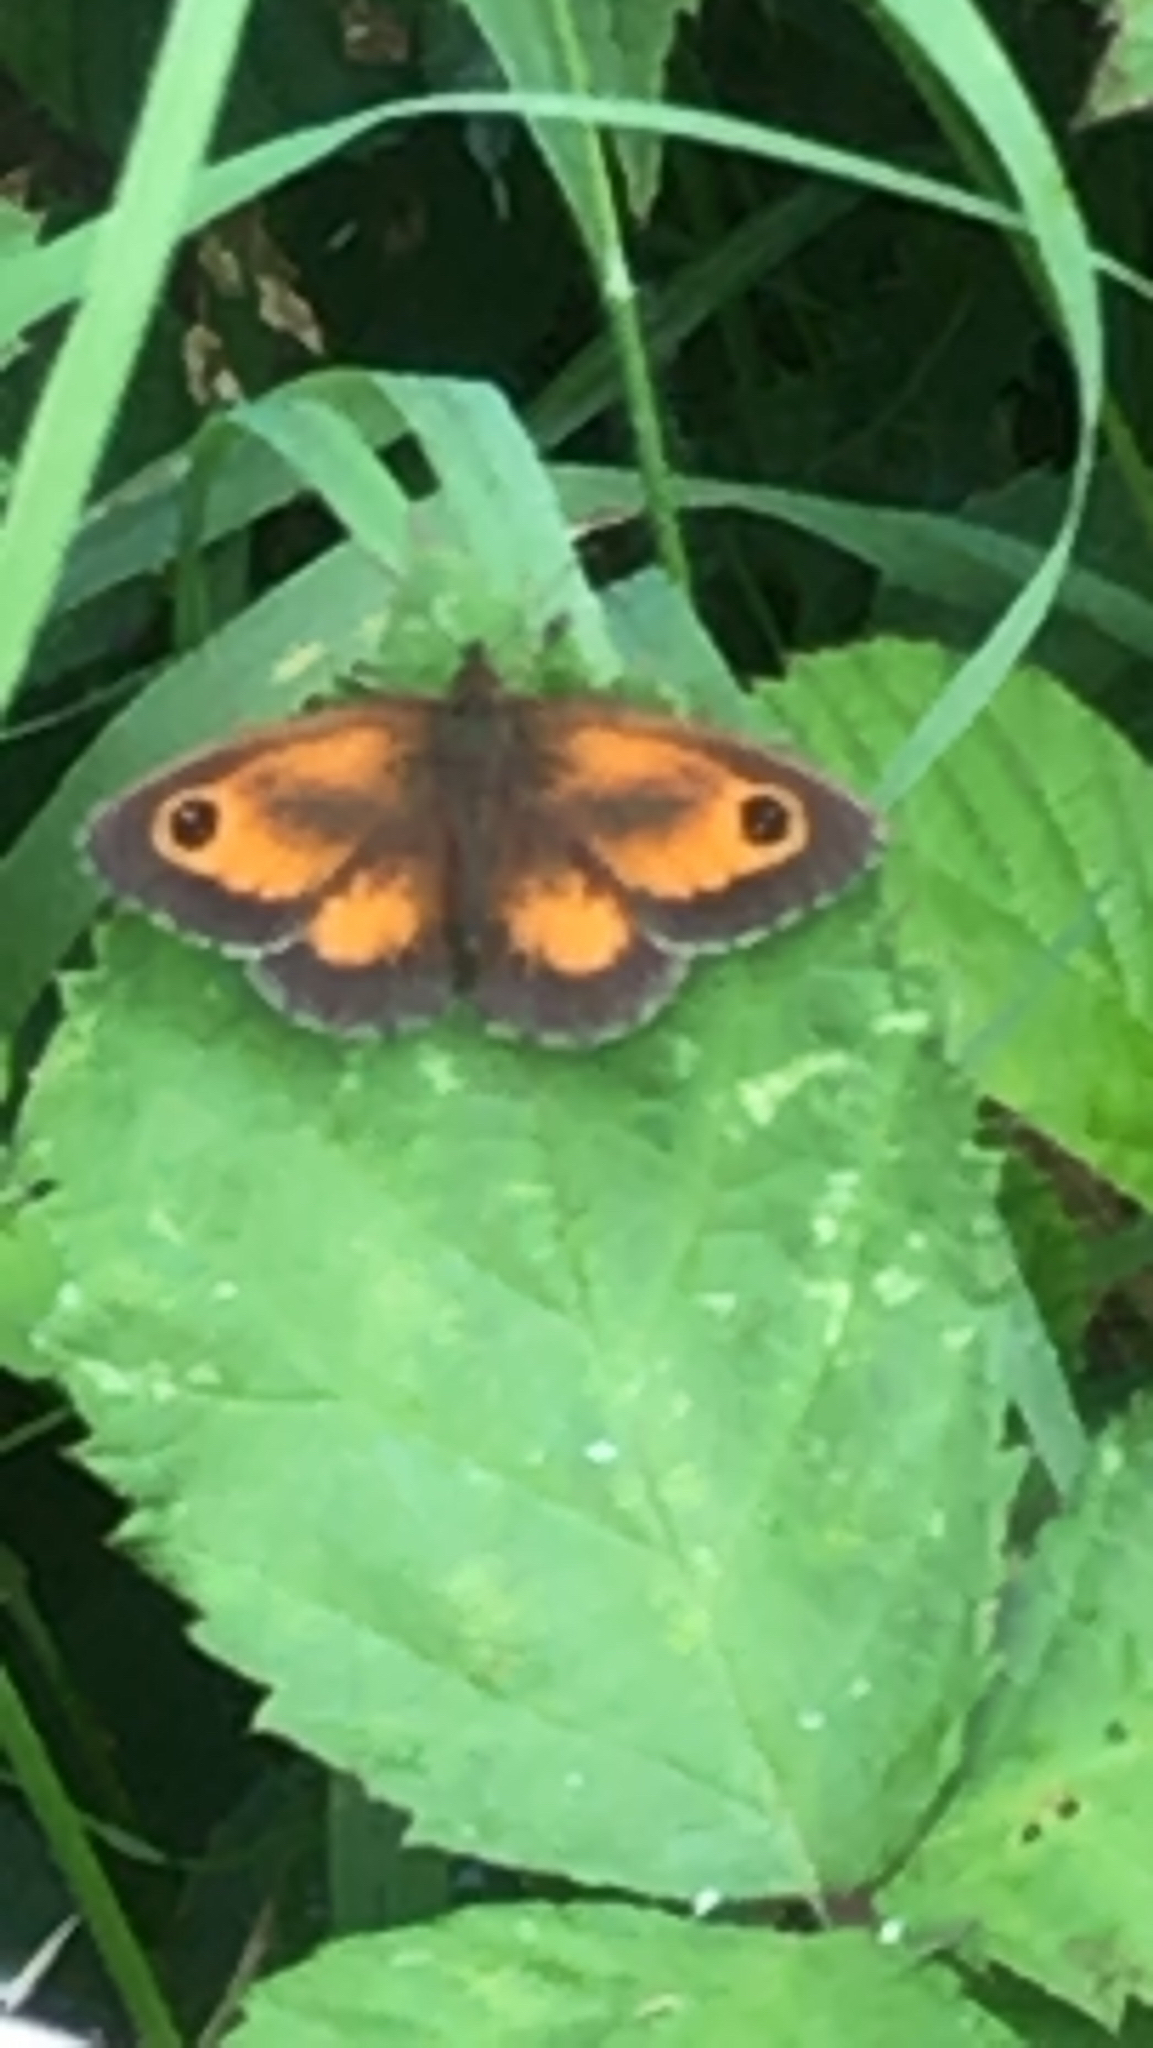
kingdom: Animalia
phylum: Arthropoda
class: Insecta
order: Lepidoptera
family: Nymphalidae
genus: Pyronia
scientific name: Pyronia tithonus
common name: Gatekeeper
